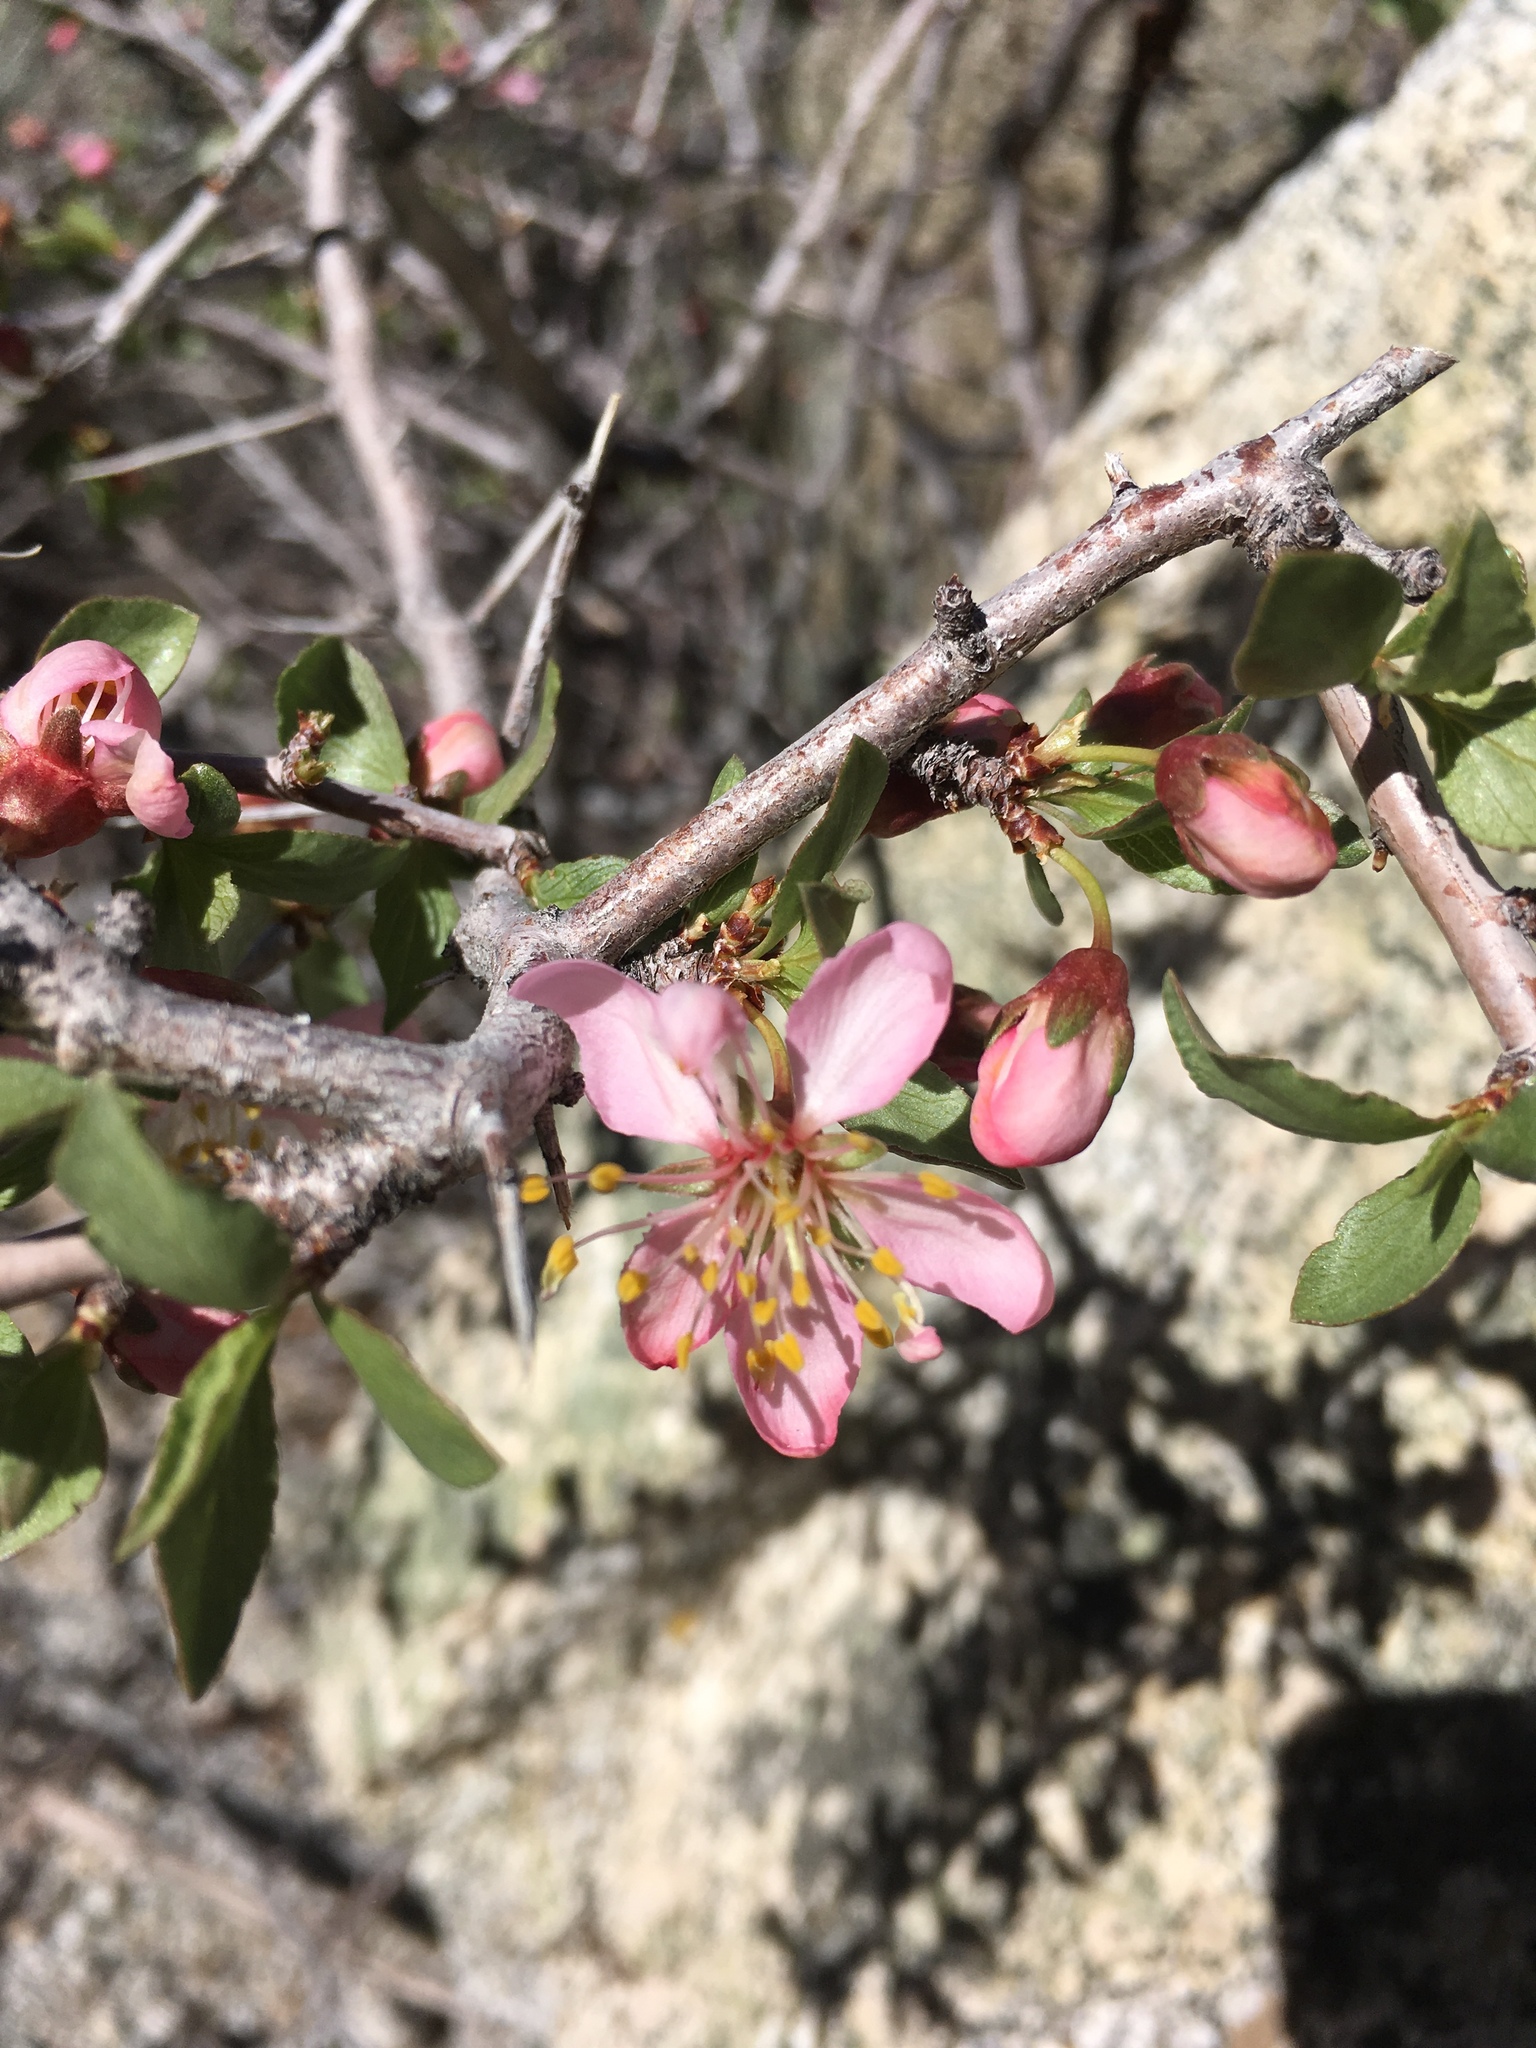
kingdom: Plantae
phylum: Tracheophyta
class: Magnoliopsida
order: Rosales
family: Rosaceae
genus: Prunus
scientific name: Prunus andersonii
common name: Desert peach
